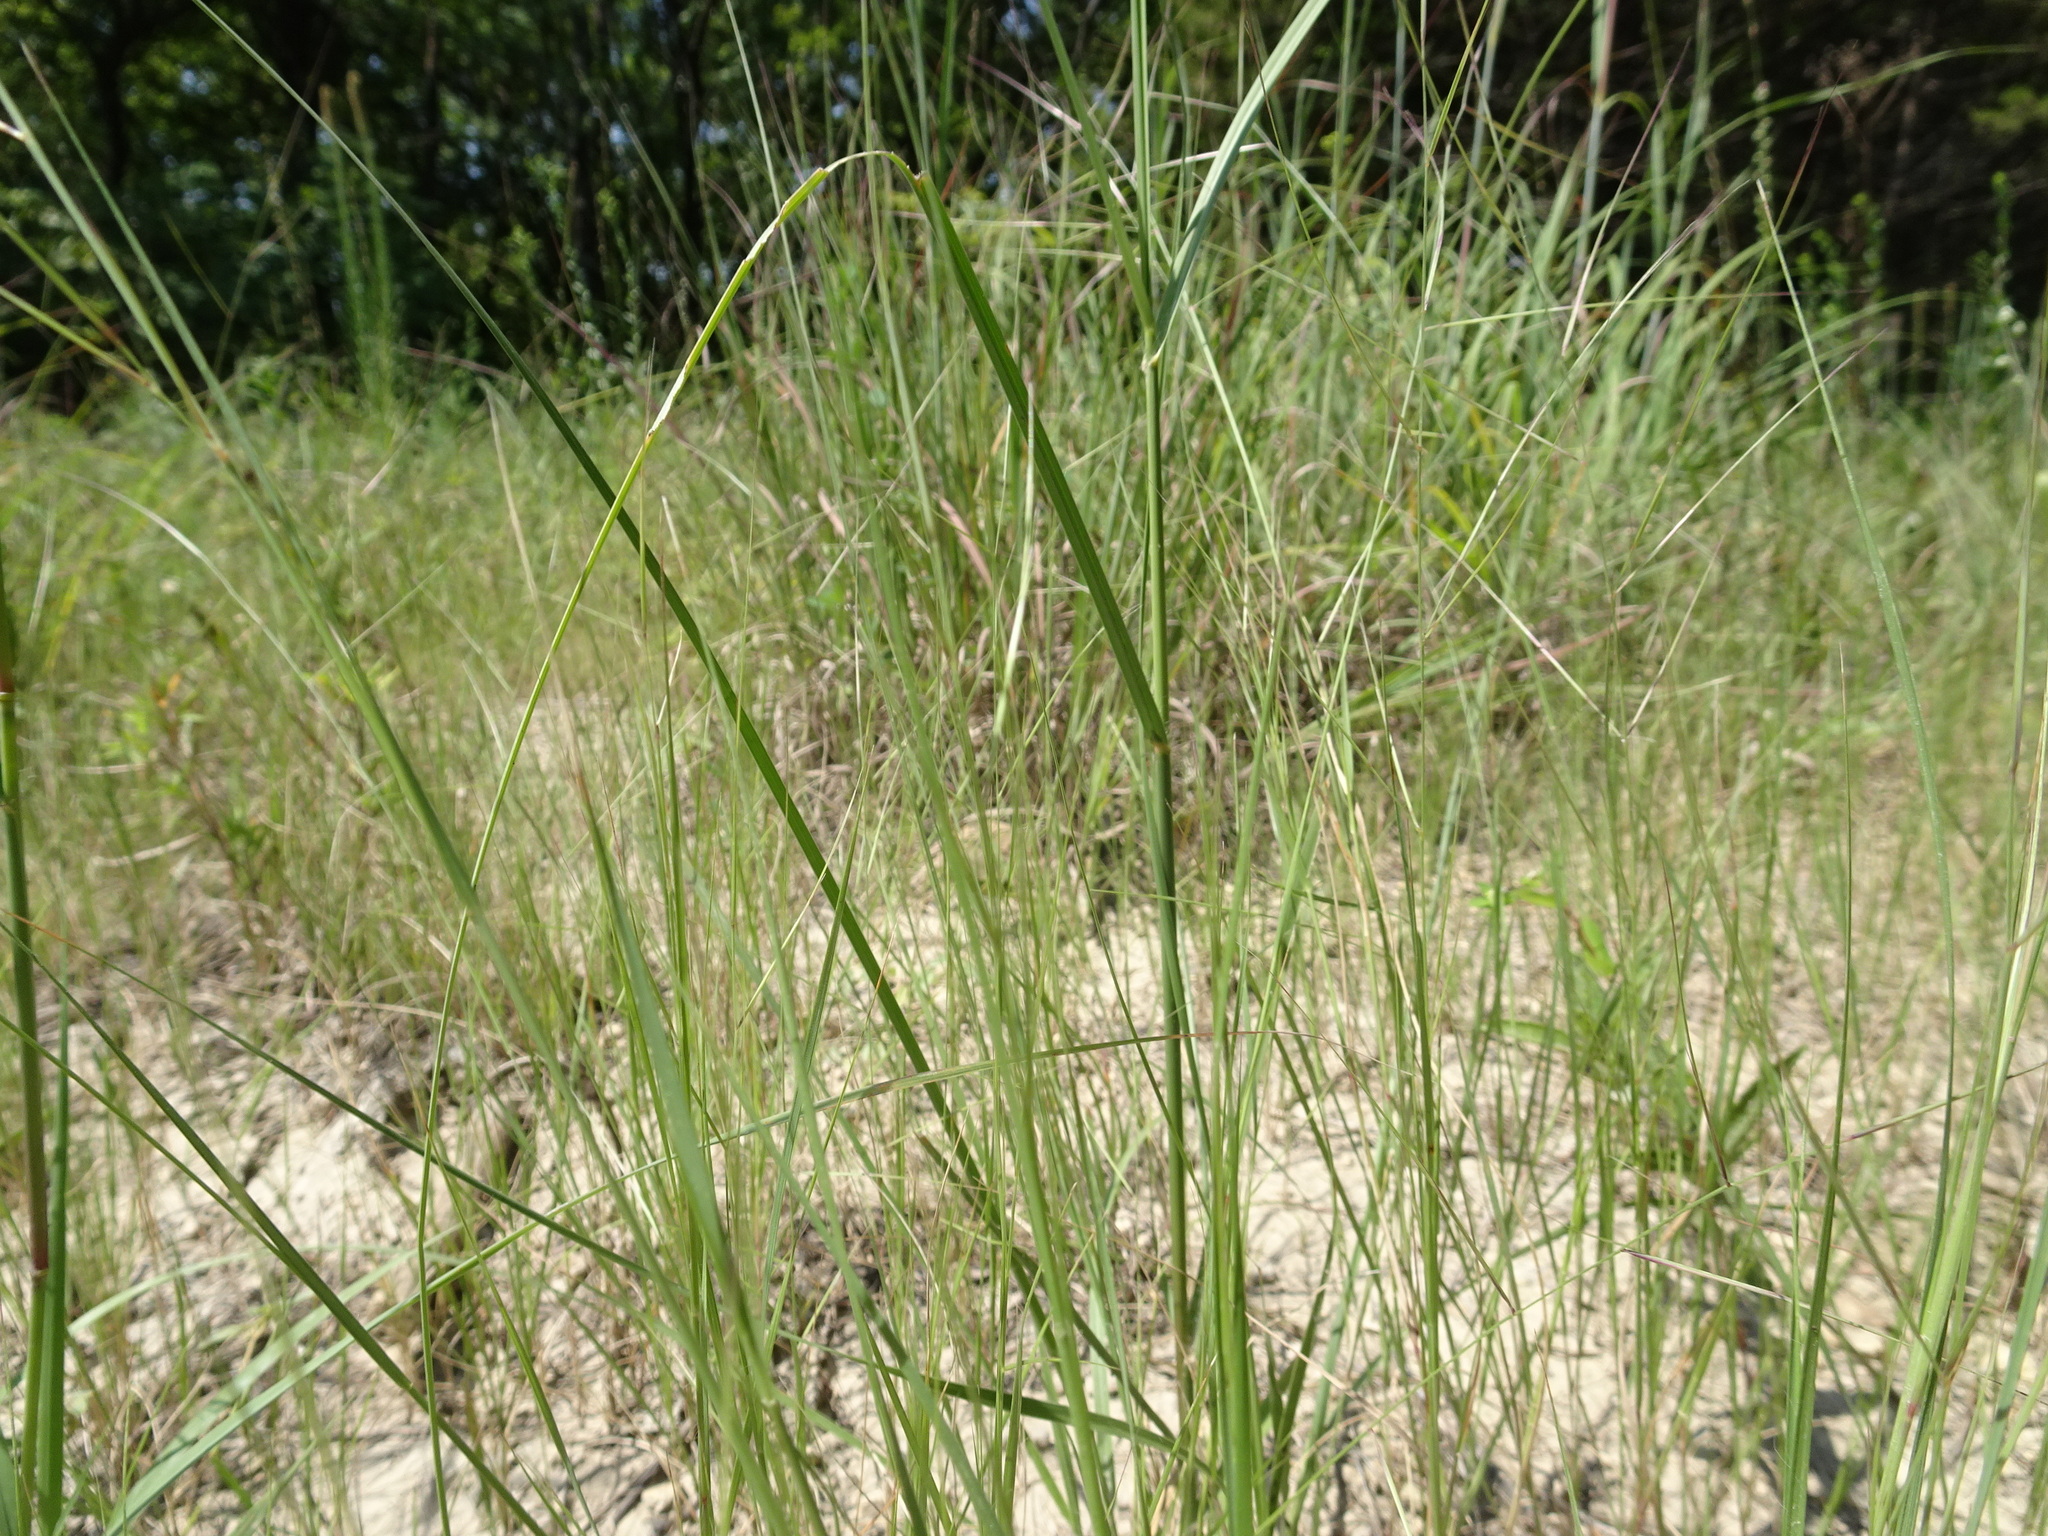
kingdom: Plantae
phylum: Tracheophyta
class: Liliopsida
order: Poales
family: Poaceae
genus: Aristida
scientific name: Aristida oligantha
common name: Few-flowered aristida
